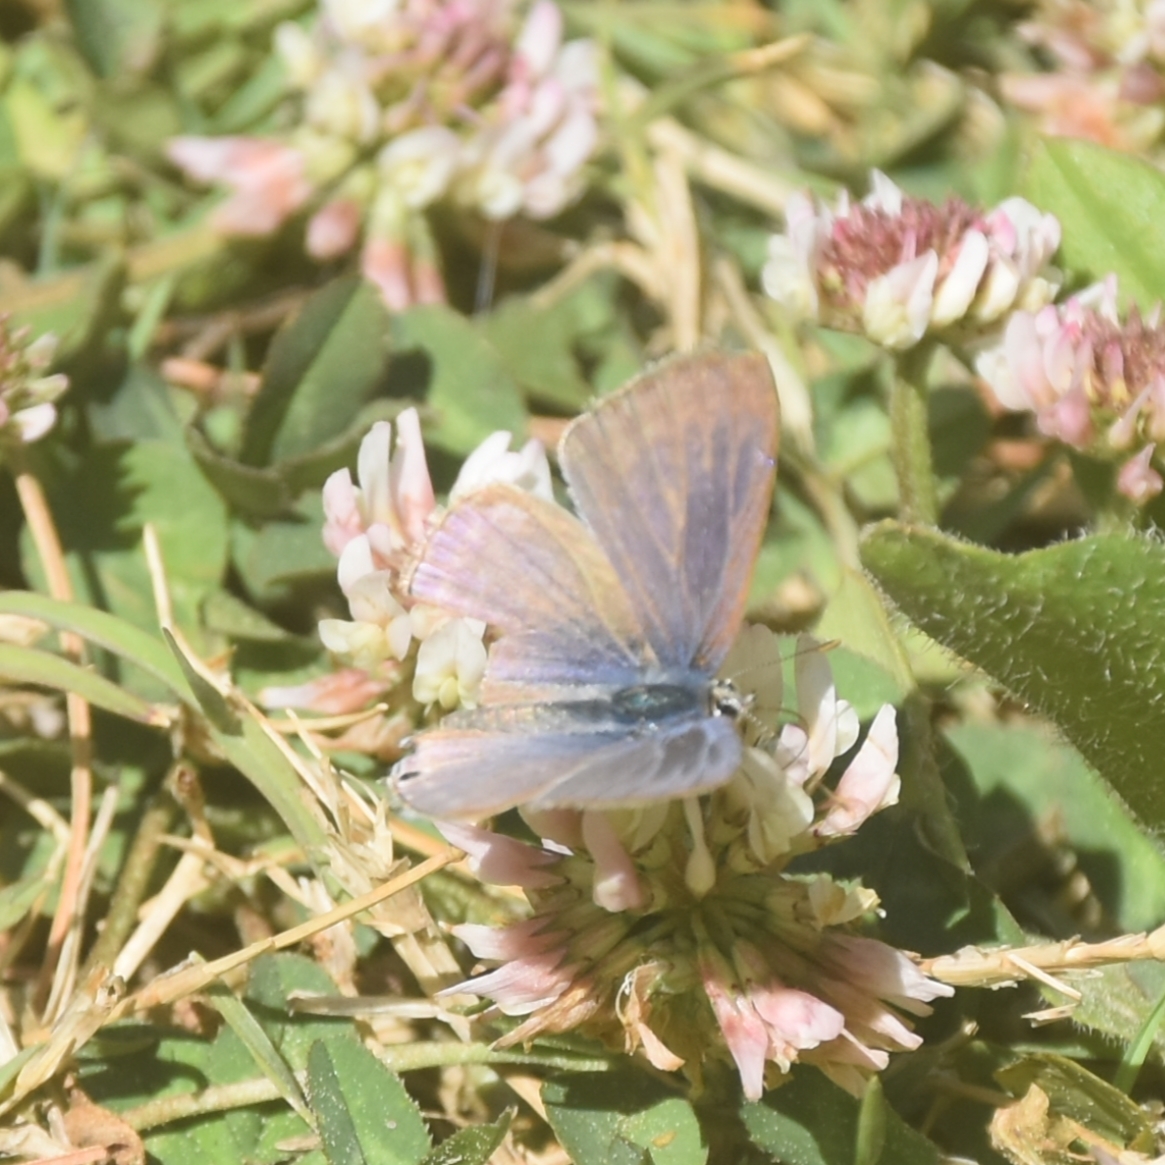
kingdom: Animalia
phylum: Arthropoda
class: Insecta
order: Lepidoptera
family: Lycaenidae
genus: Lampides
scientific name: Lampides boeticus
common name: Long-tailed blue
